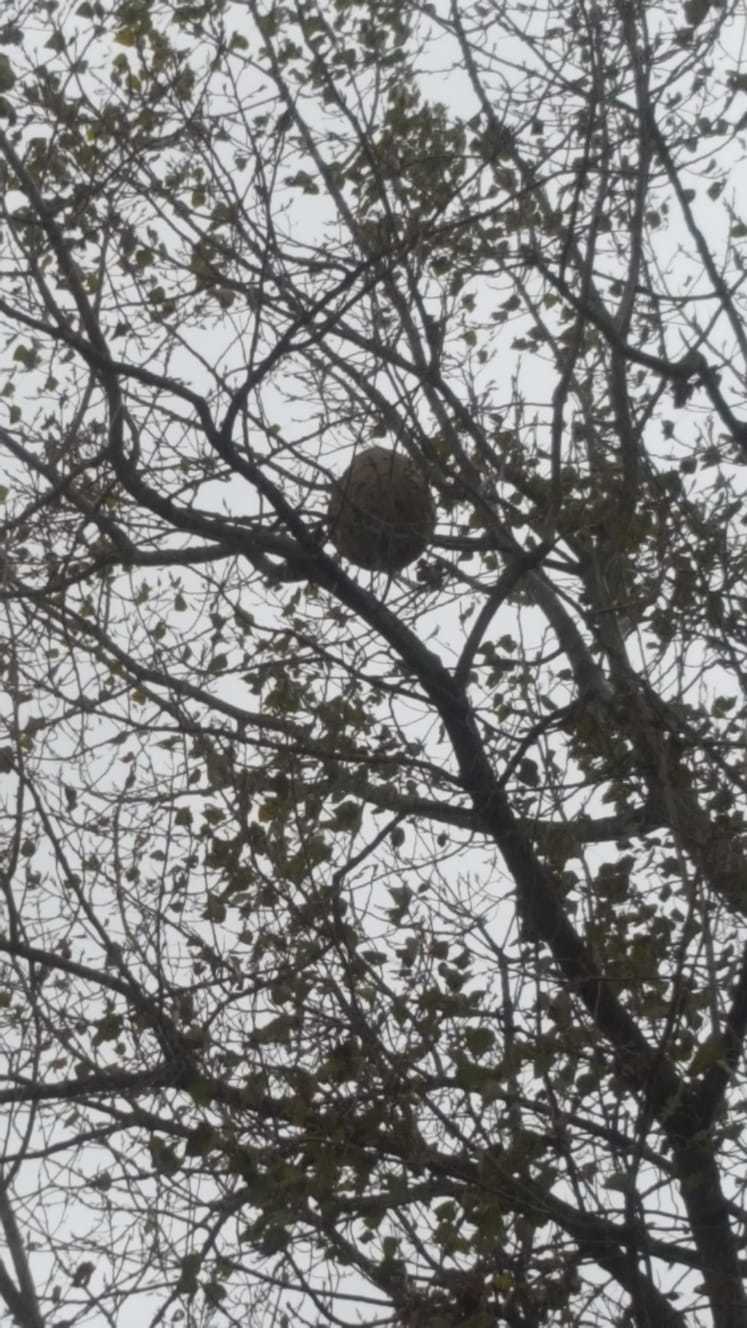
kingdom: Animalia
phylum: Arthropoda
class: Insecta
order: Hymenoptera
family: Vespidae
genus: Vespa
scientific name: Vespa velutina
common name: Asian hornet
